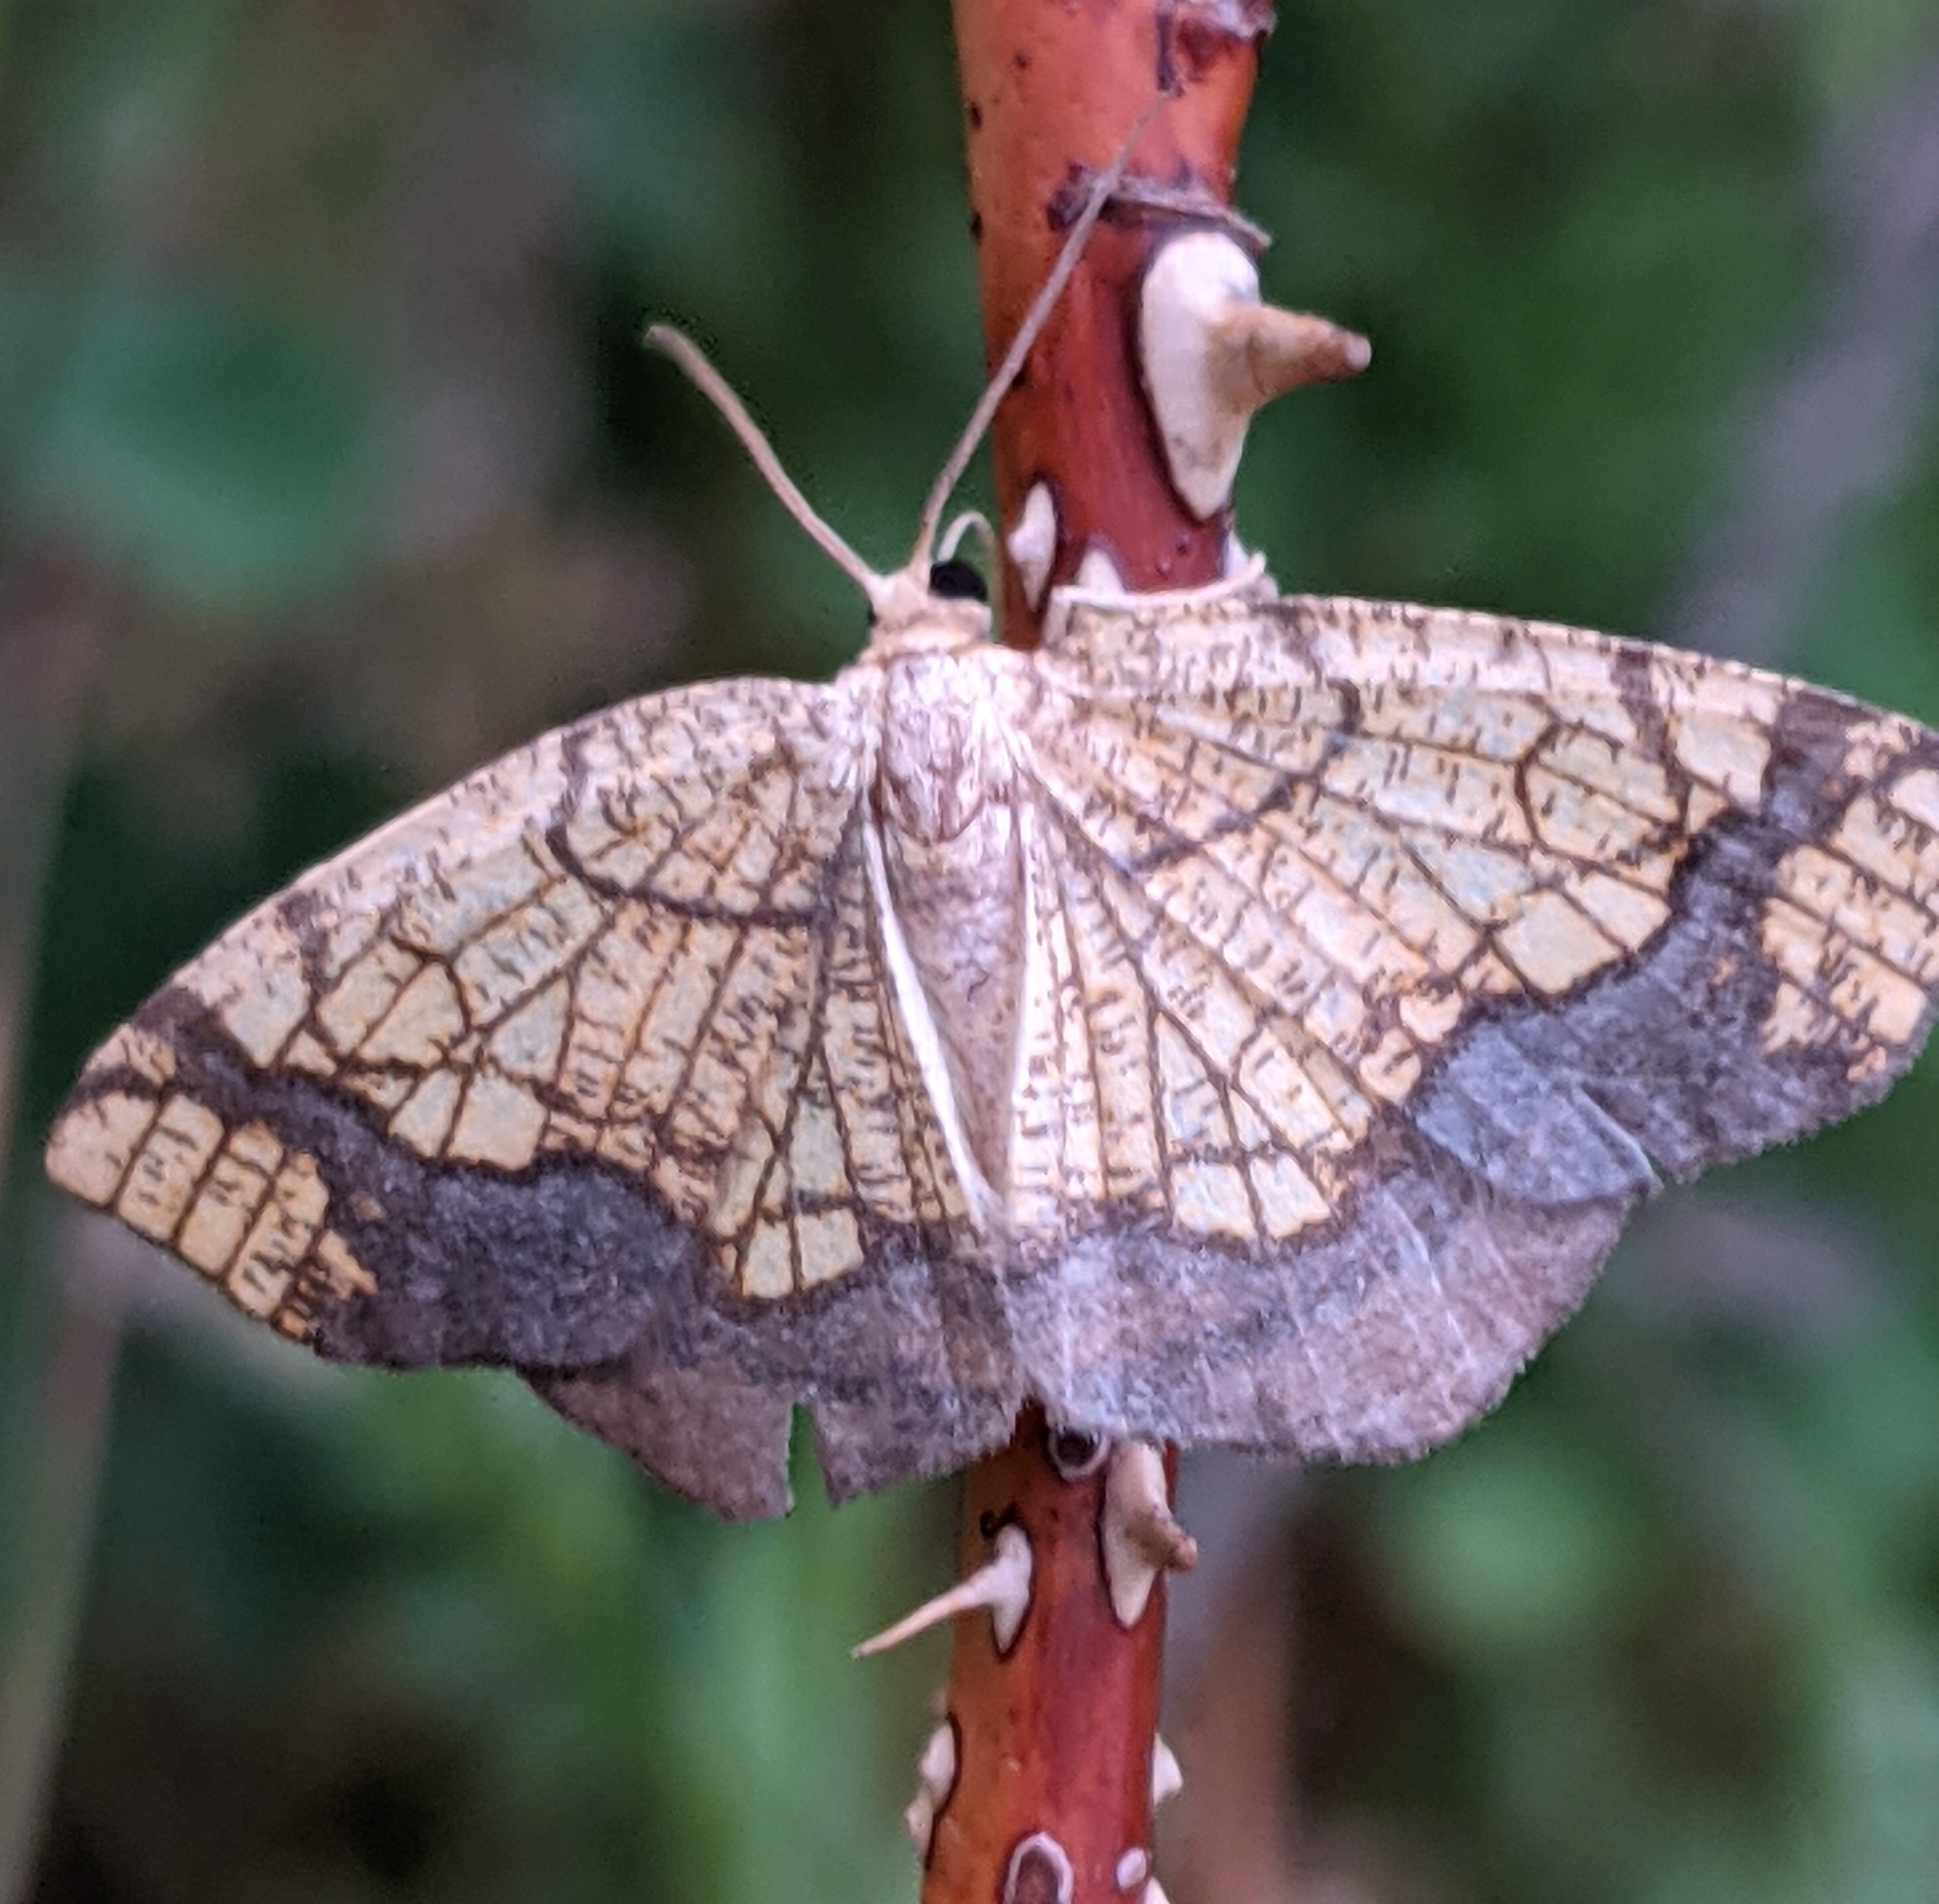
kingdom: Animalia
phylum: Arthropoda
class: Insecta
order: Lepidoptera
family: Geometridae
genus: Nematocampa
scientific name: Nematocampa resistaria
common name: Horned spanworm moth
